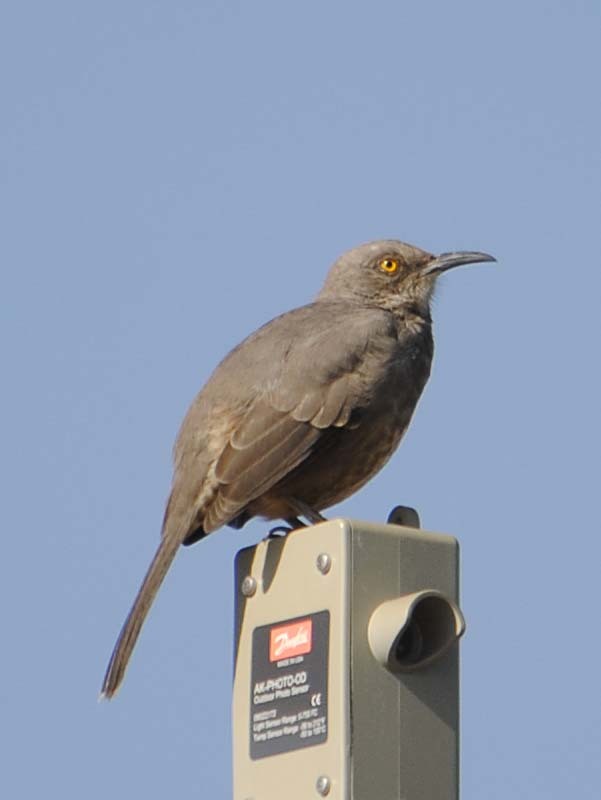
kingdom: Animalia
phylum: Chordata
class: Aves
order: Passeriformes
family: Mimidae
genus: Toxostoma
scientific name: Toxostoma curvirostre
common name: Curve-billed thrasher
